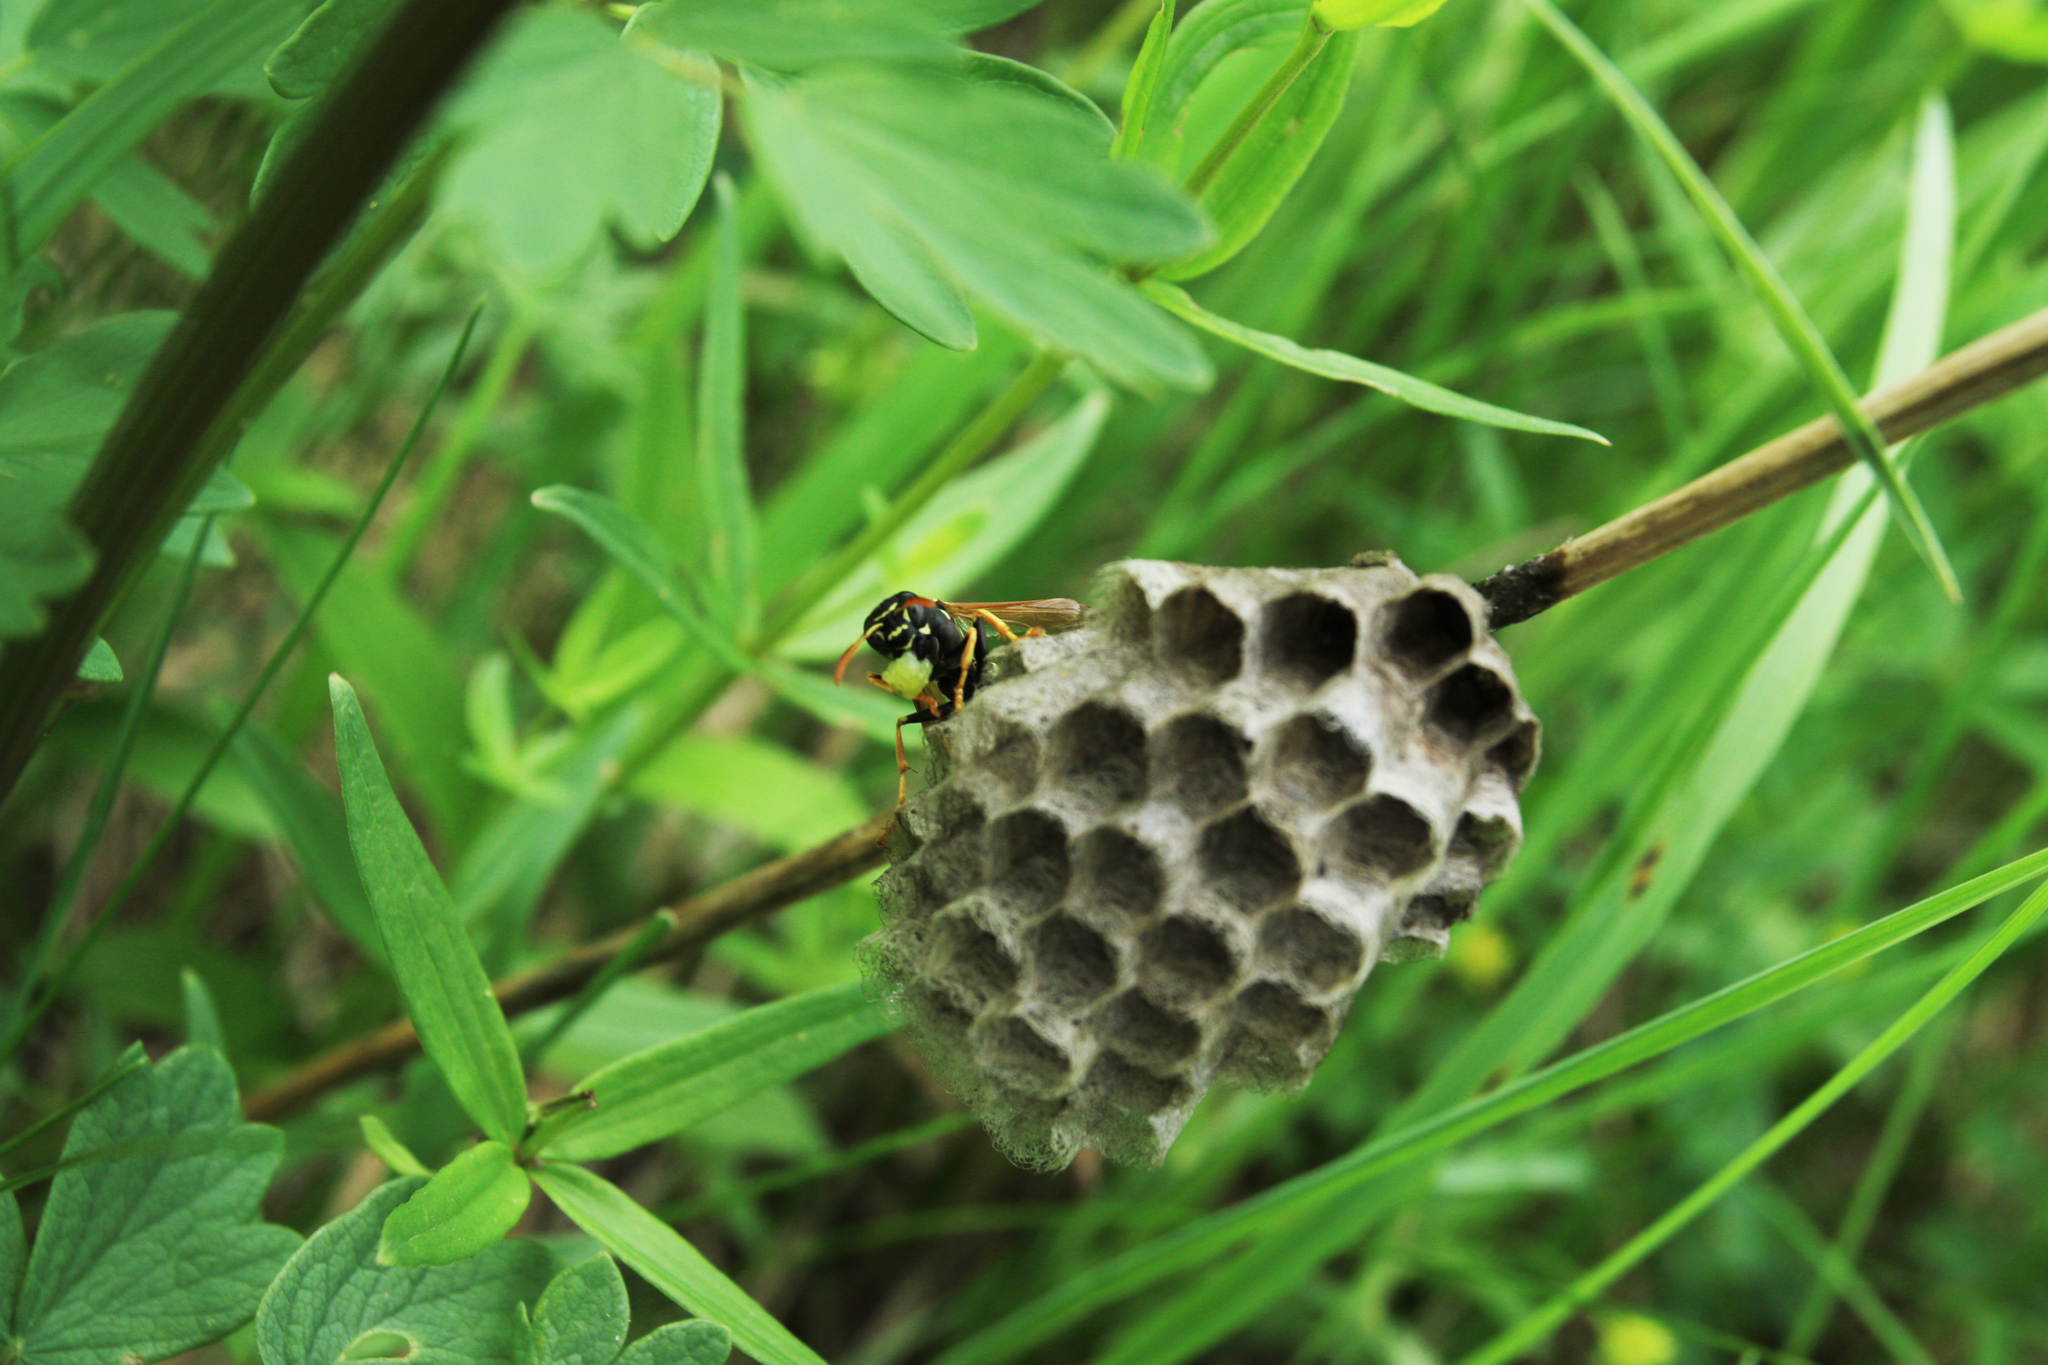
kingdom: Animalia
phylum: Arthropoda
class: Insecta
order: Hymenoptera
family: Eumenidae
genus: Polistes
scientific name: Polistes nimpha
